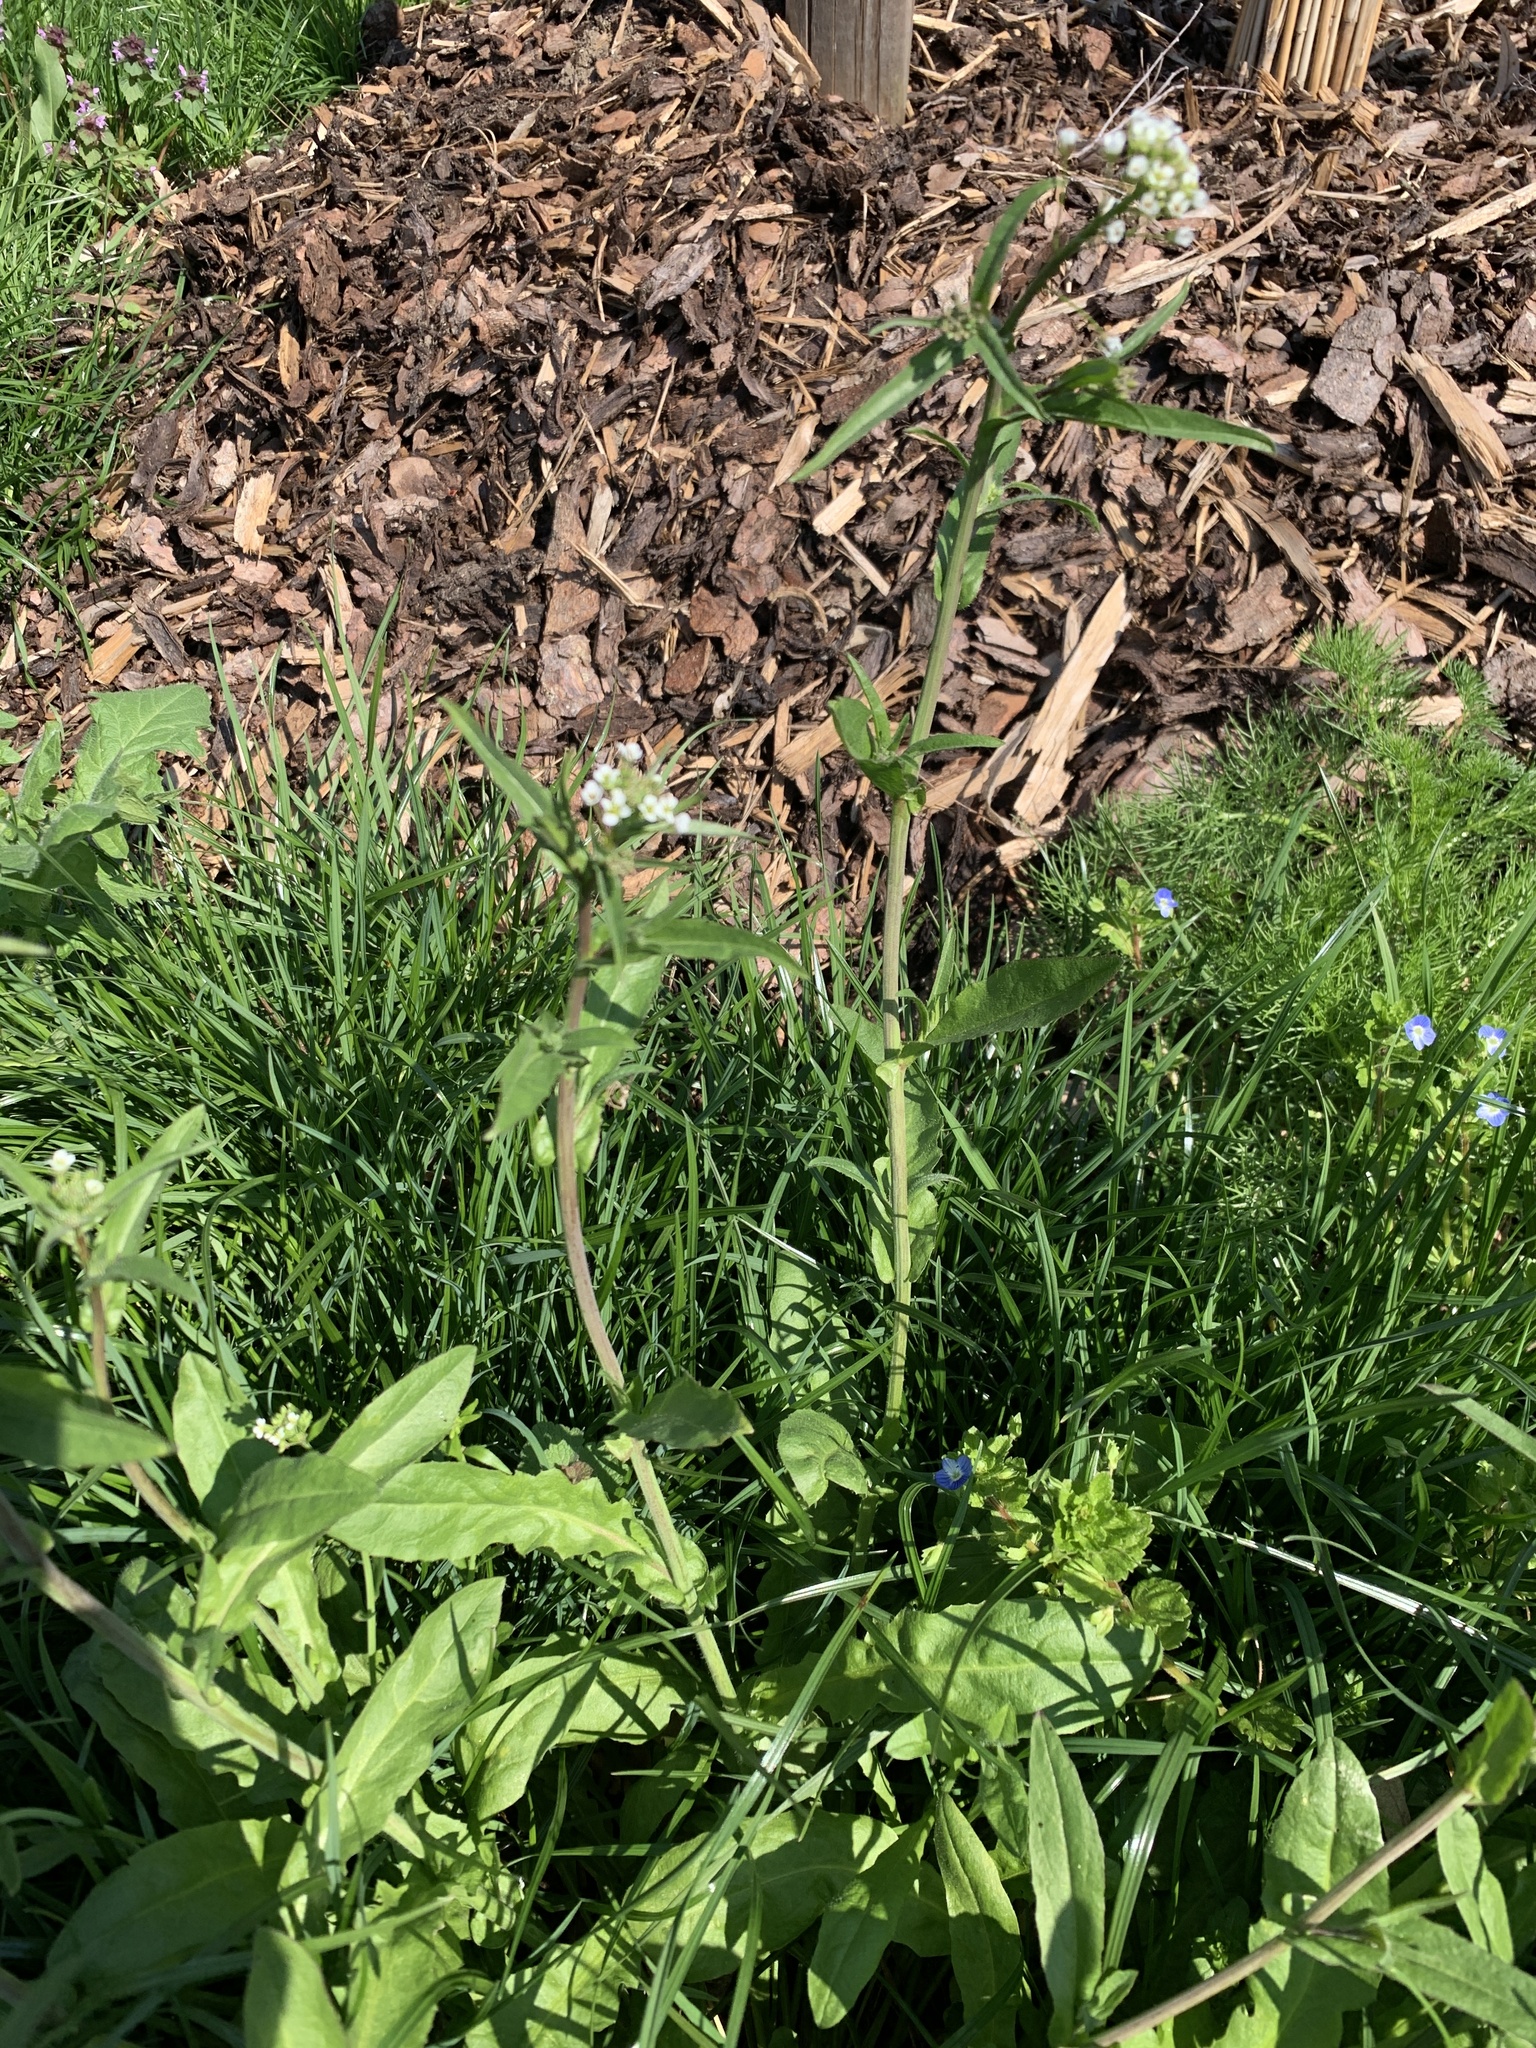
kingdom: Plantae
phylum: Tracheophyta
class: Magnoliopsida
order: Brassicales
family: Brassicaceae
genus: Capsella
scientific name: Capsella bursa-pastoris
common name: Shepherd's purse
